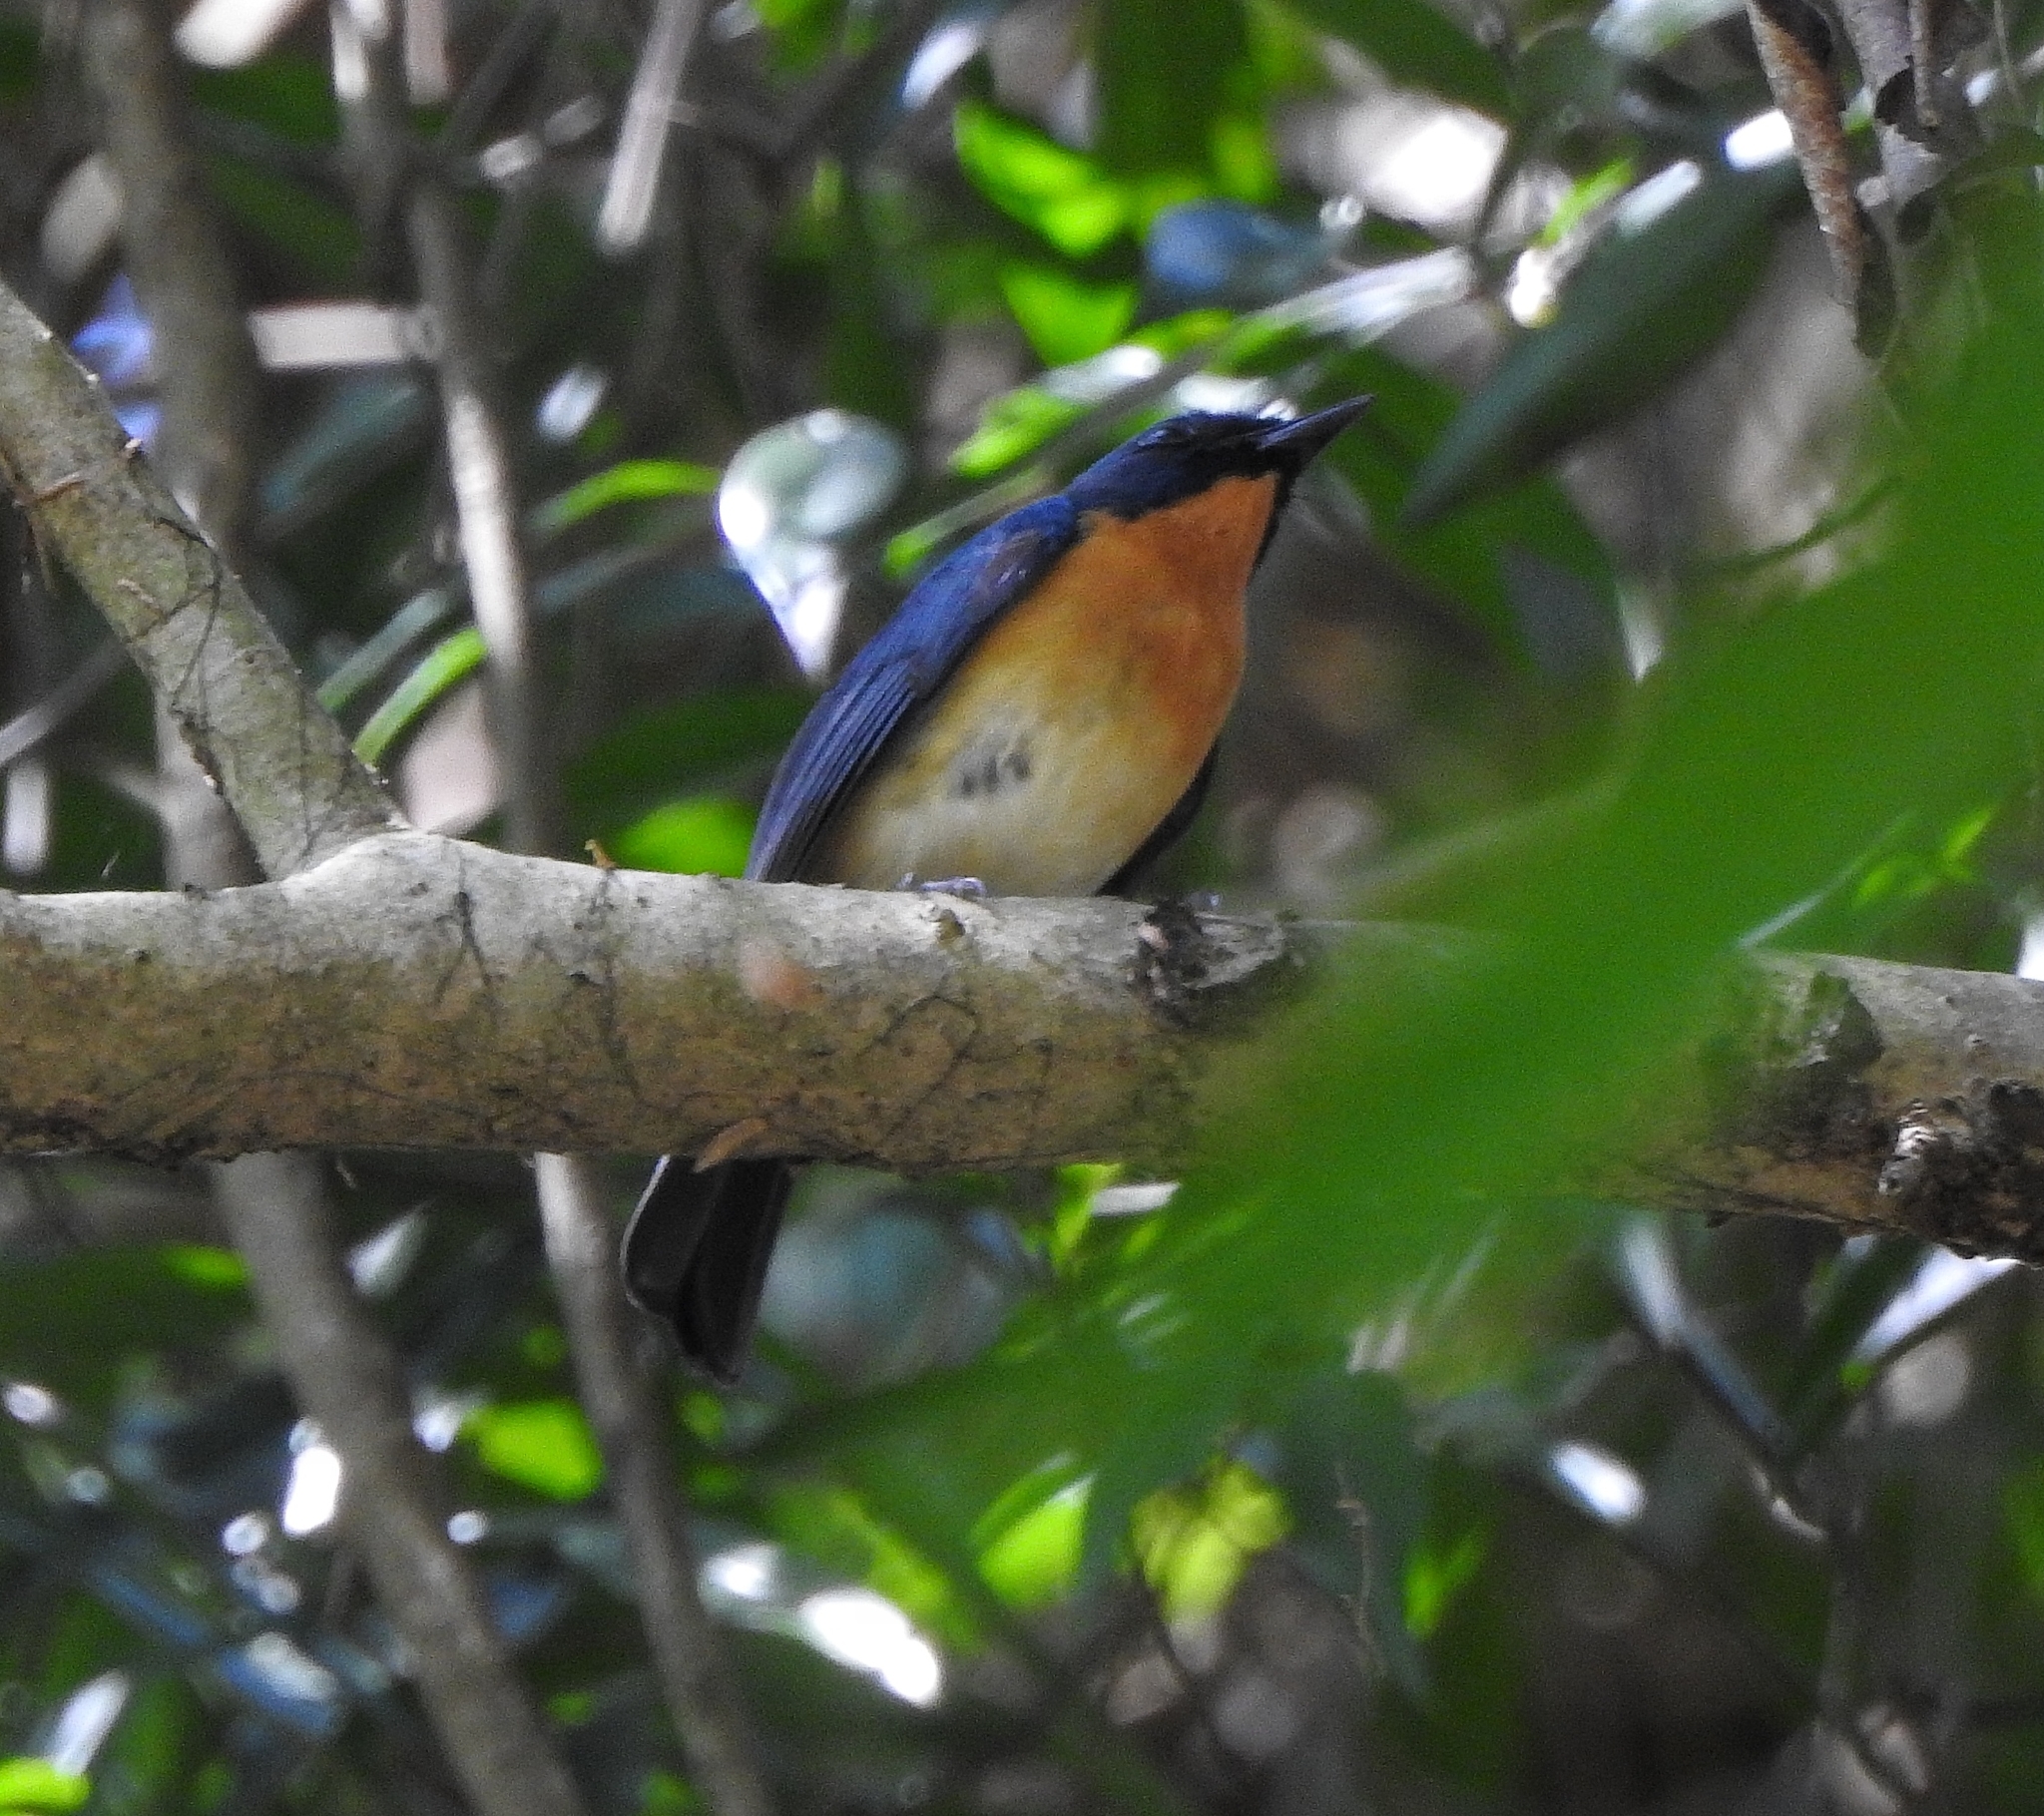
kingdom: Animalia
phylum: Chordata
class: Aves
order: Passeriformes
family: Muscicapidae
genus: Cyornis
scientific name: Cyornis tickelliae
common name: Tickell's blue flycatcher
